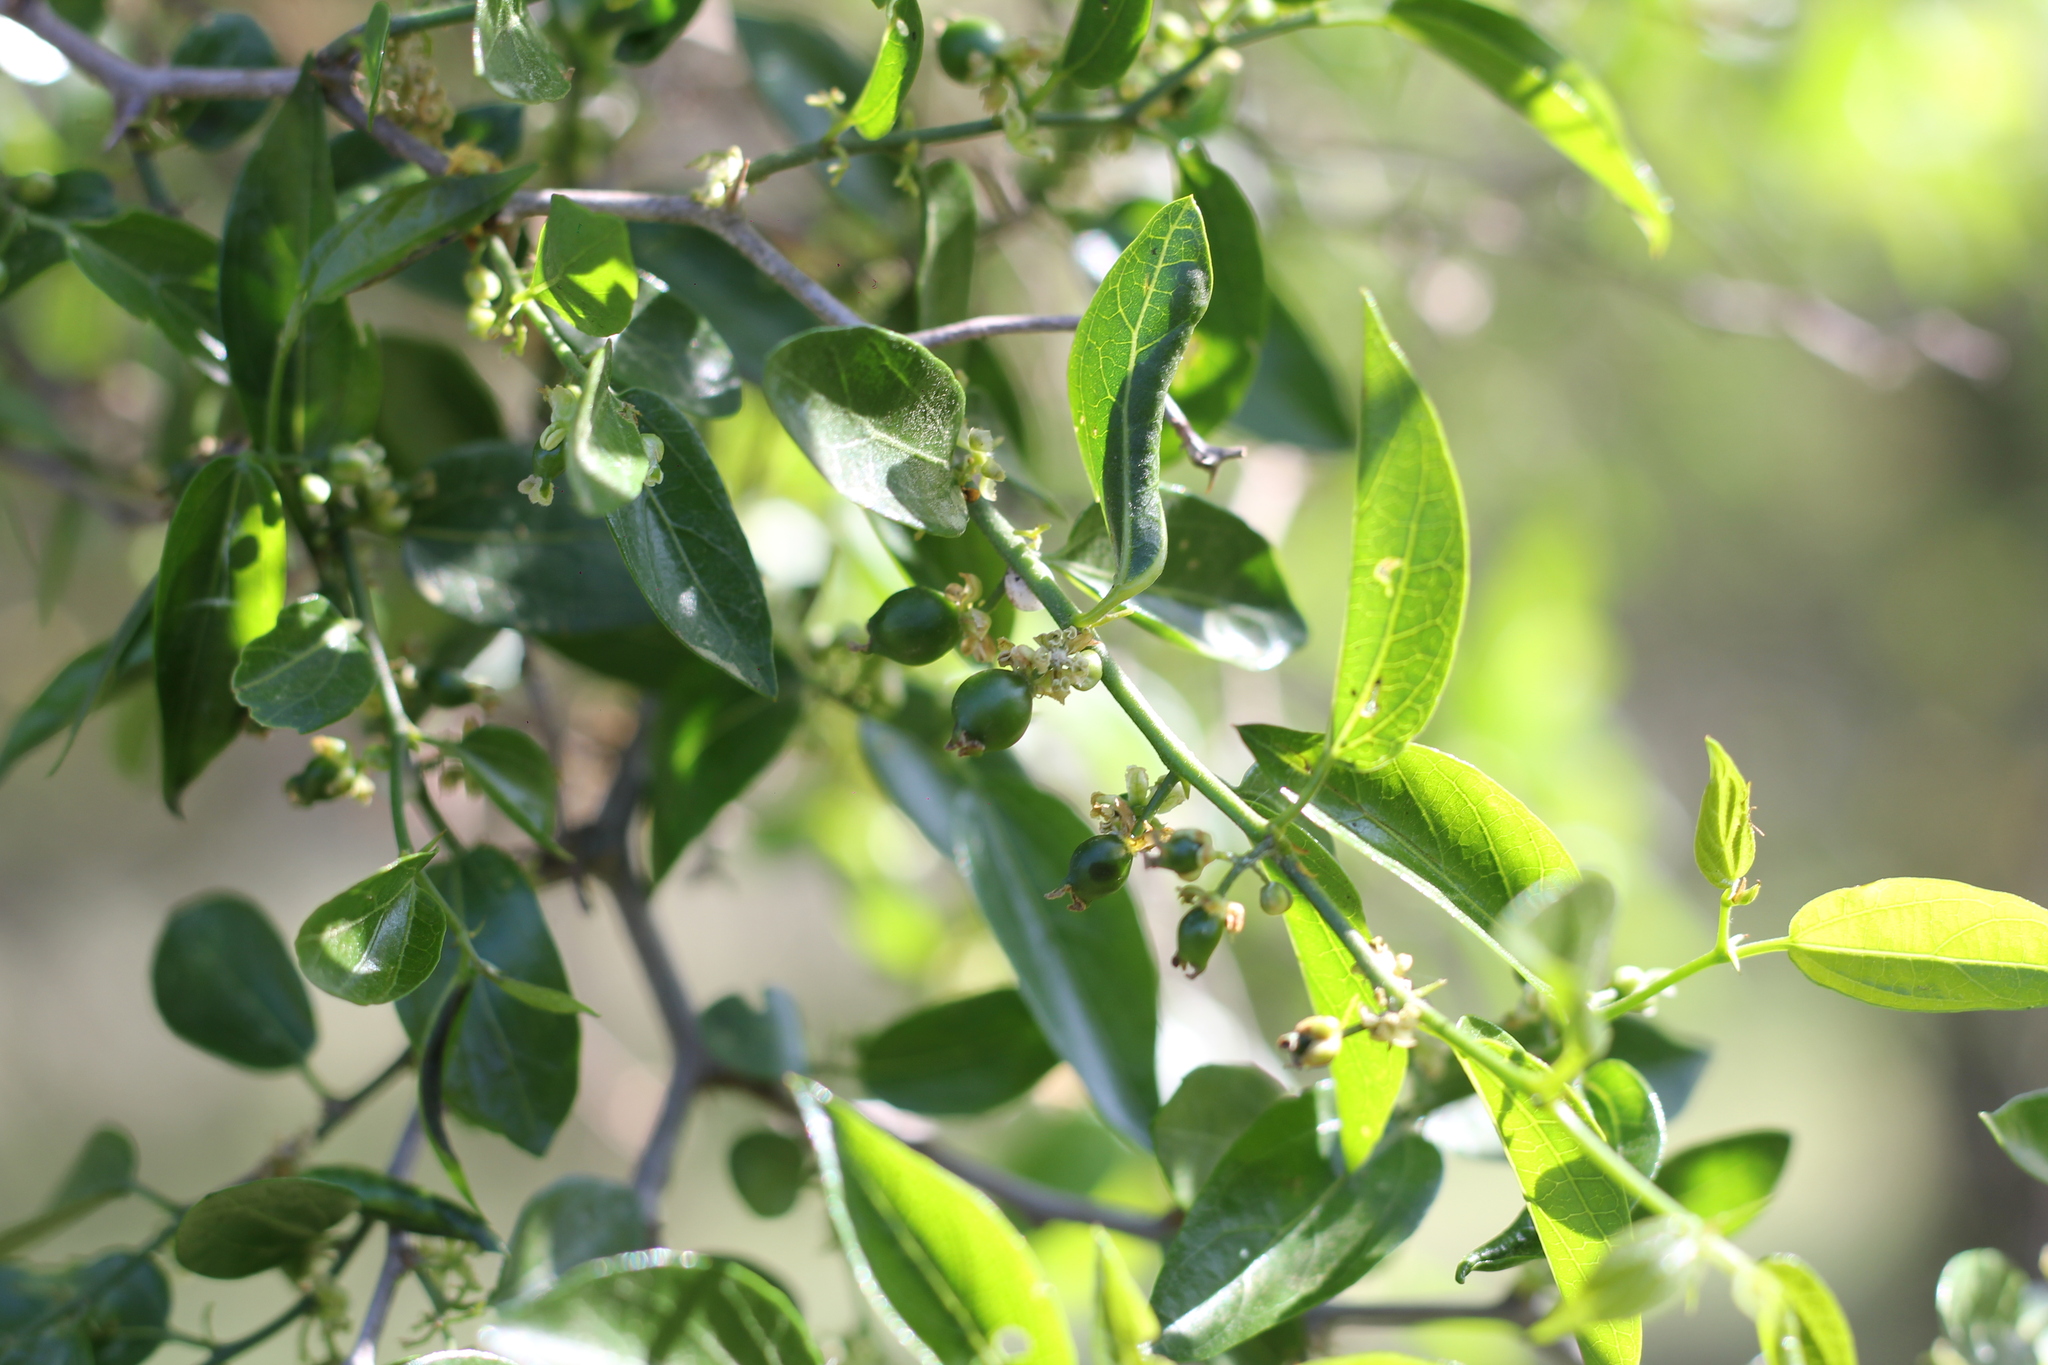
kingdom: Plantae
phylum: Tracheophyta
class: Magnoliopsida
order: Rosales
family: Cannabaceae
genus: Celtis
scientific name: Celtis tala
